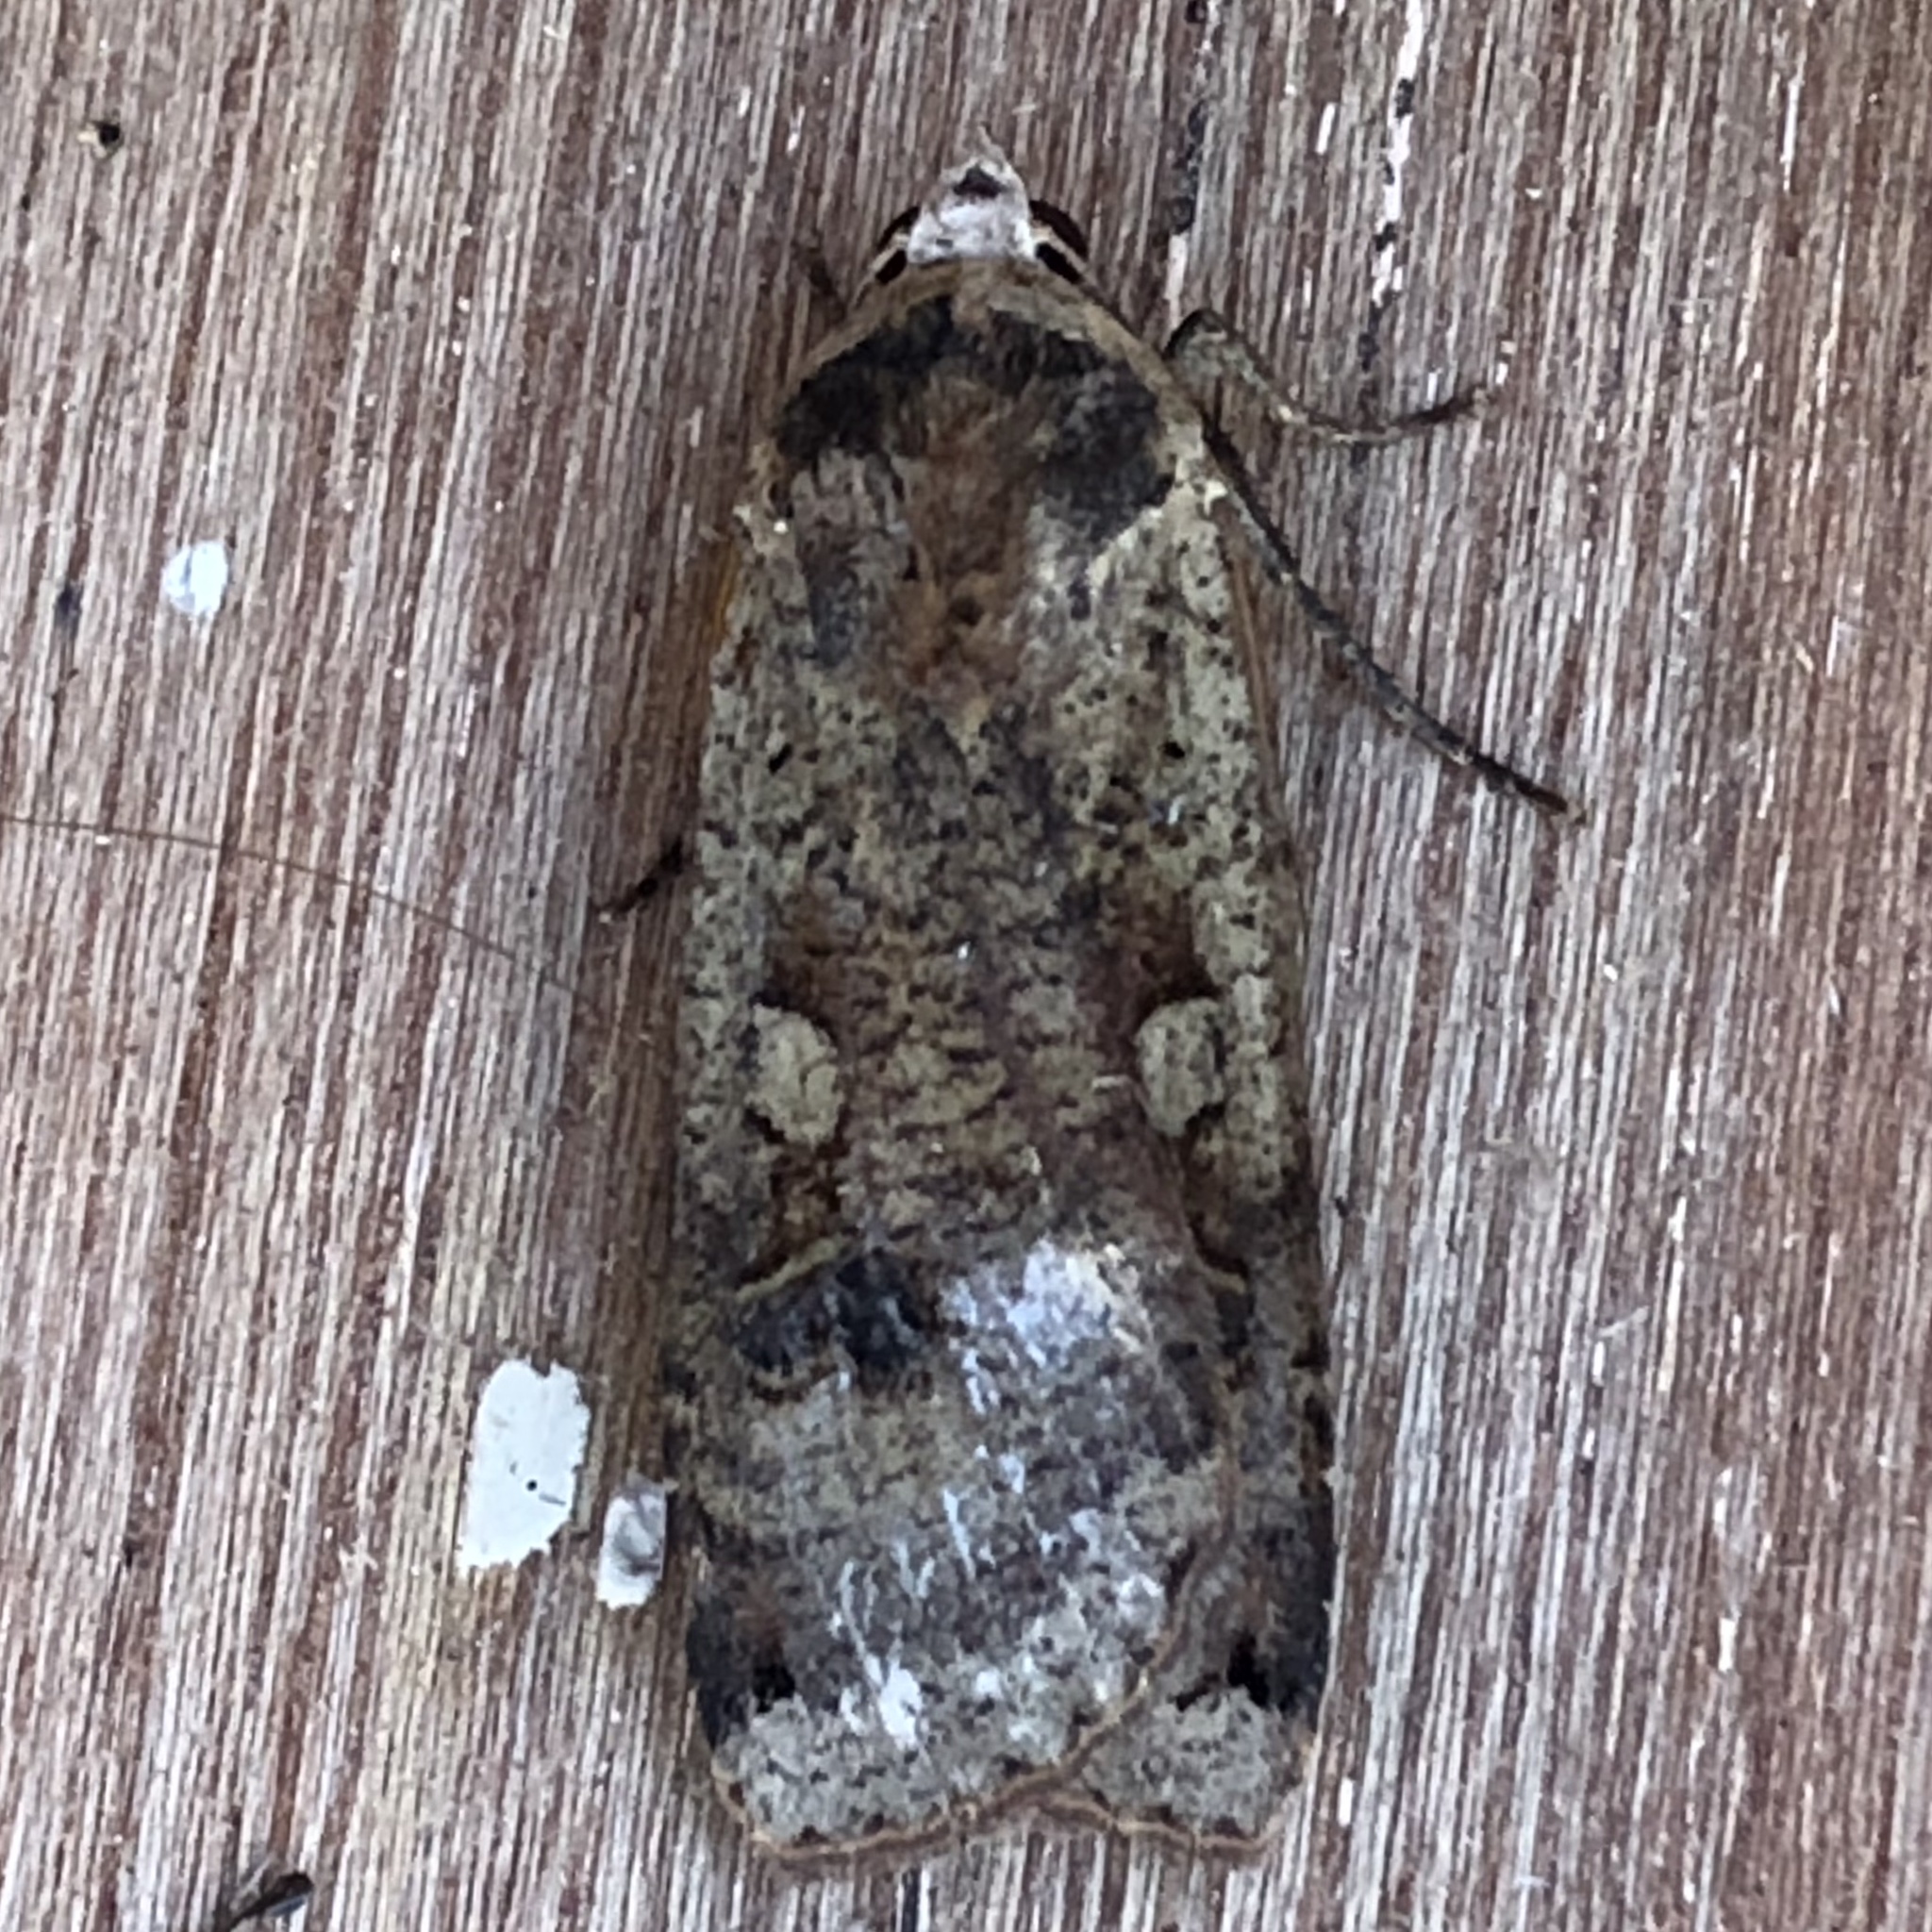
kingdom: Animalia
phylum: Arthropoda
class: Insecta
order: Lepidoptera
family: Noctuidae
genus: Noctua
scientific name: Noctua pronuba
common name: Large yellow underwing
